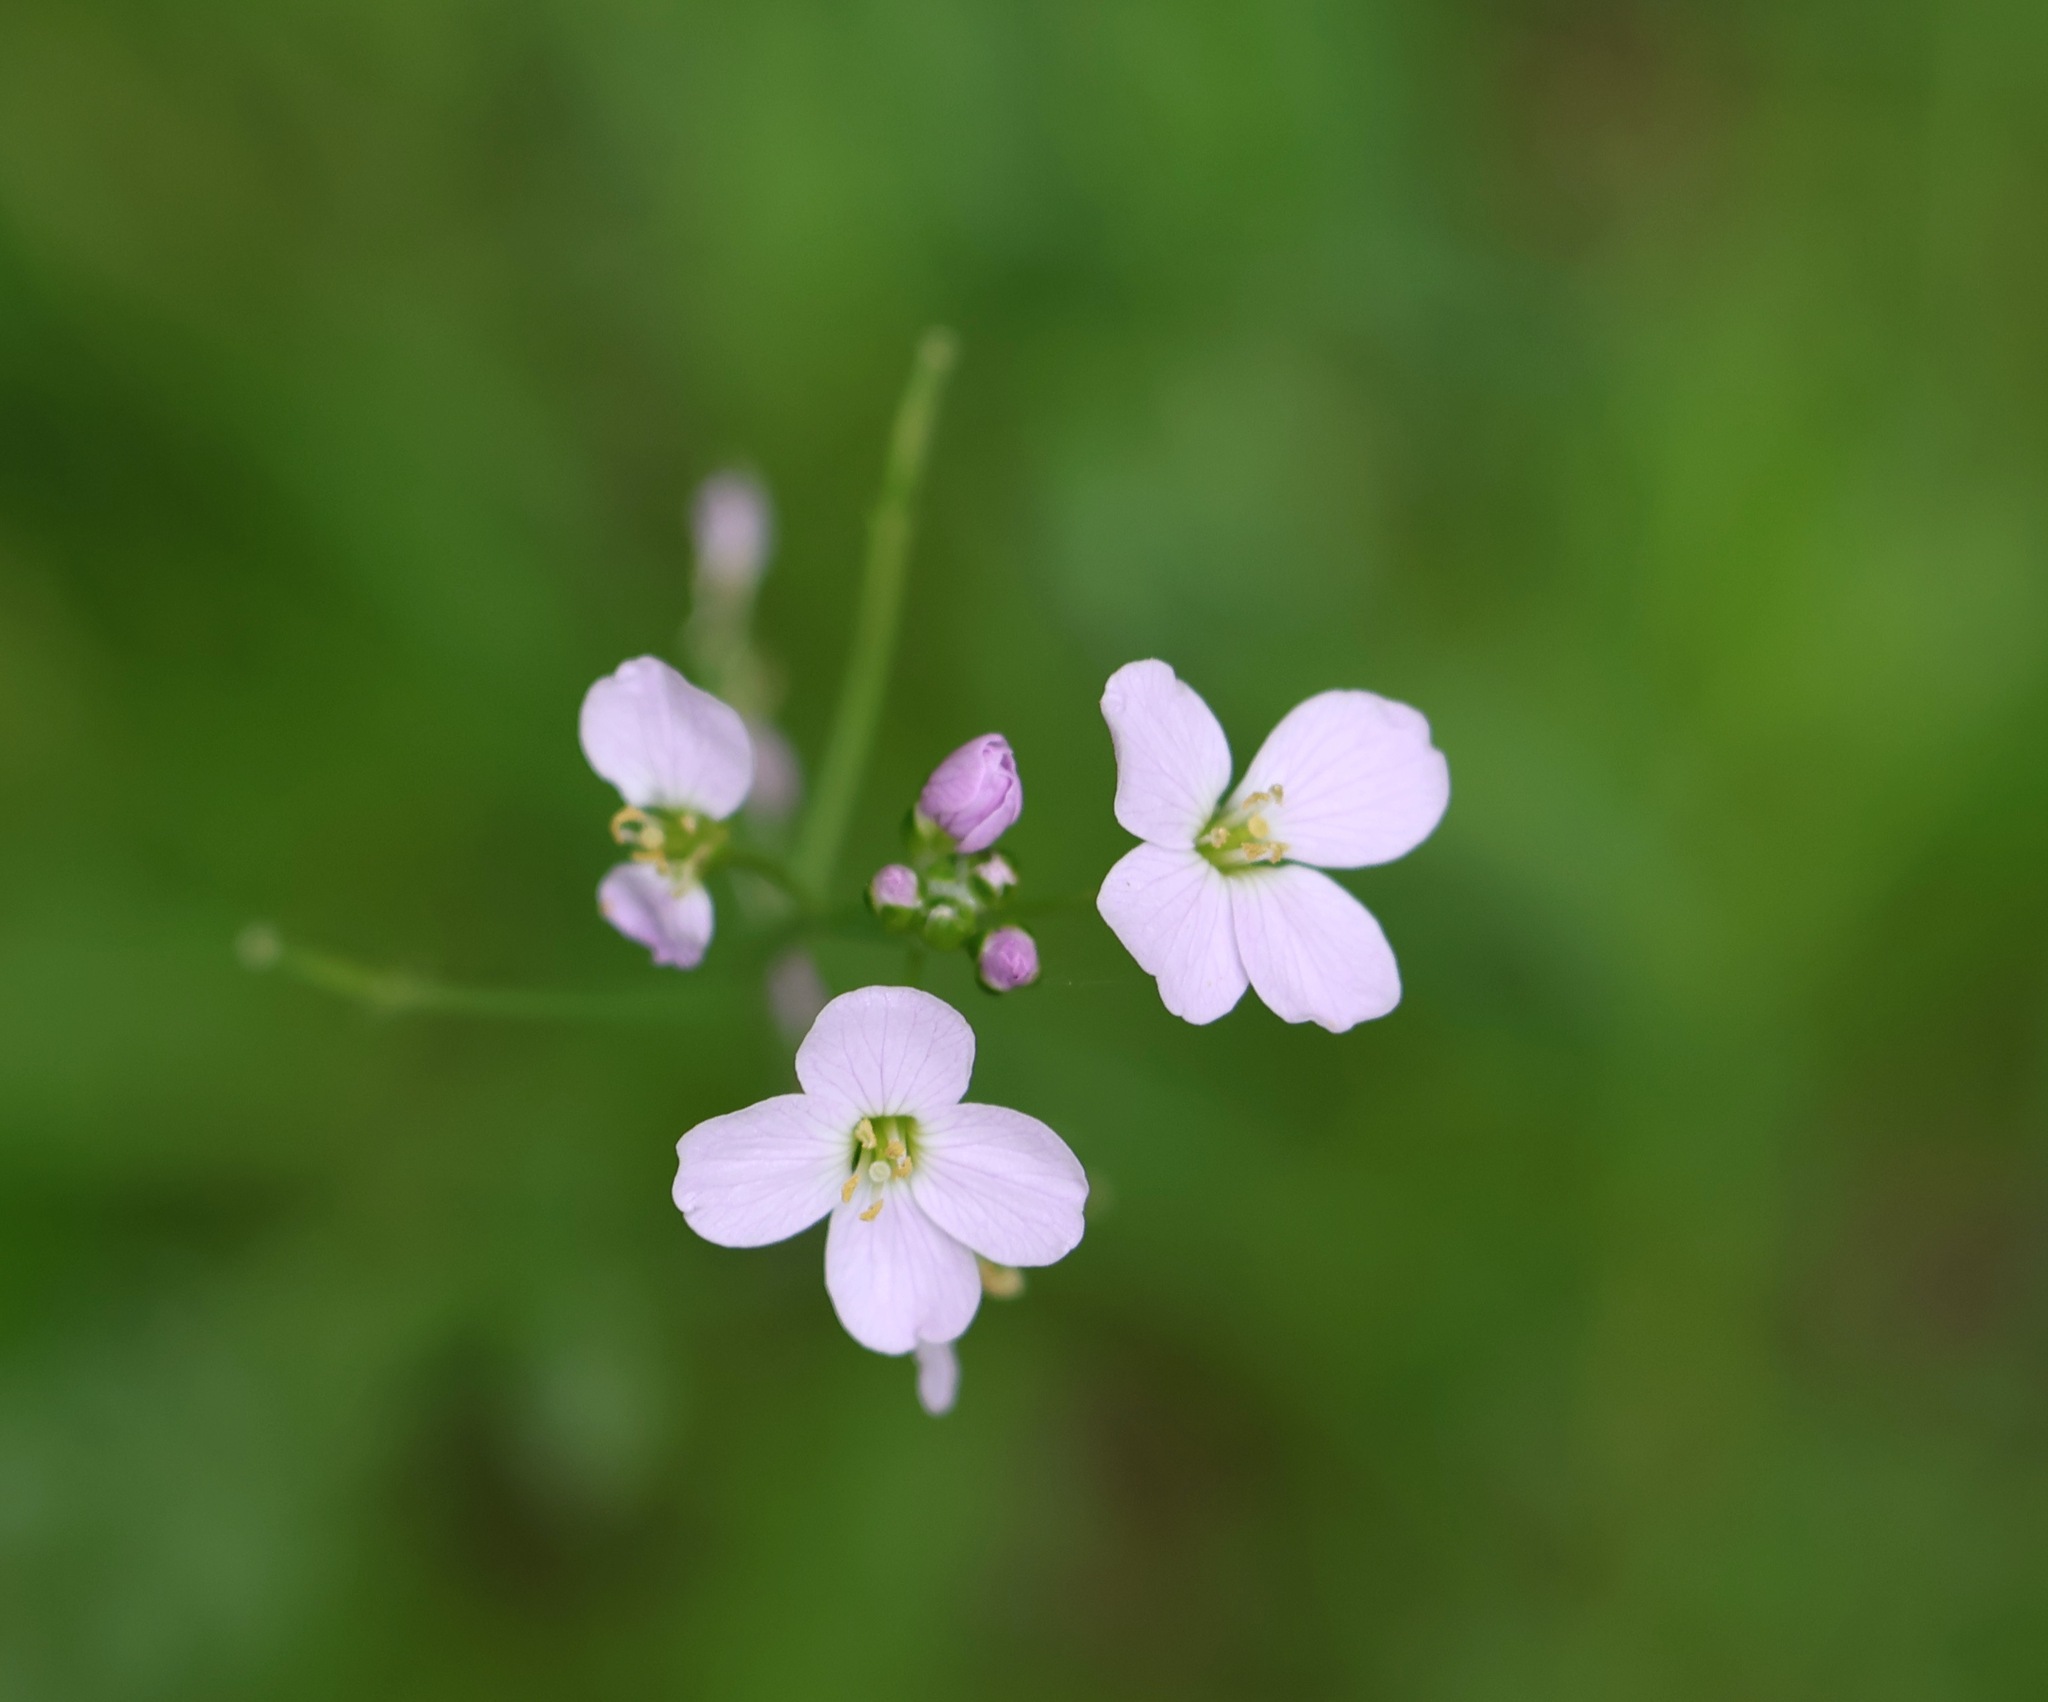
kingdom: Plantae
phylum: Tracheophyta
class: Magnoliopsida
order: Brassicales
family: Brassicaceae
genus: Cardamine
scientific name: Cardamine pratensis
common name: Cuckoo flower
